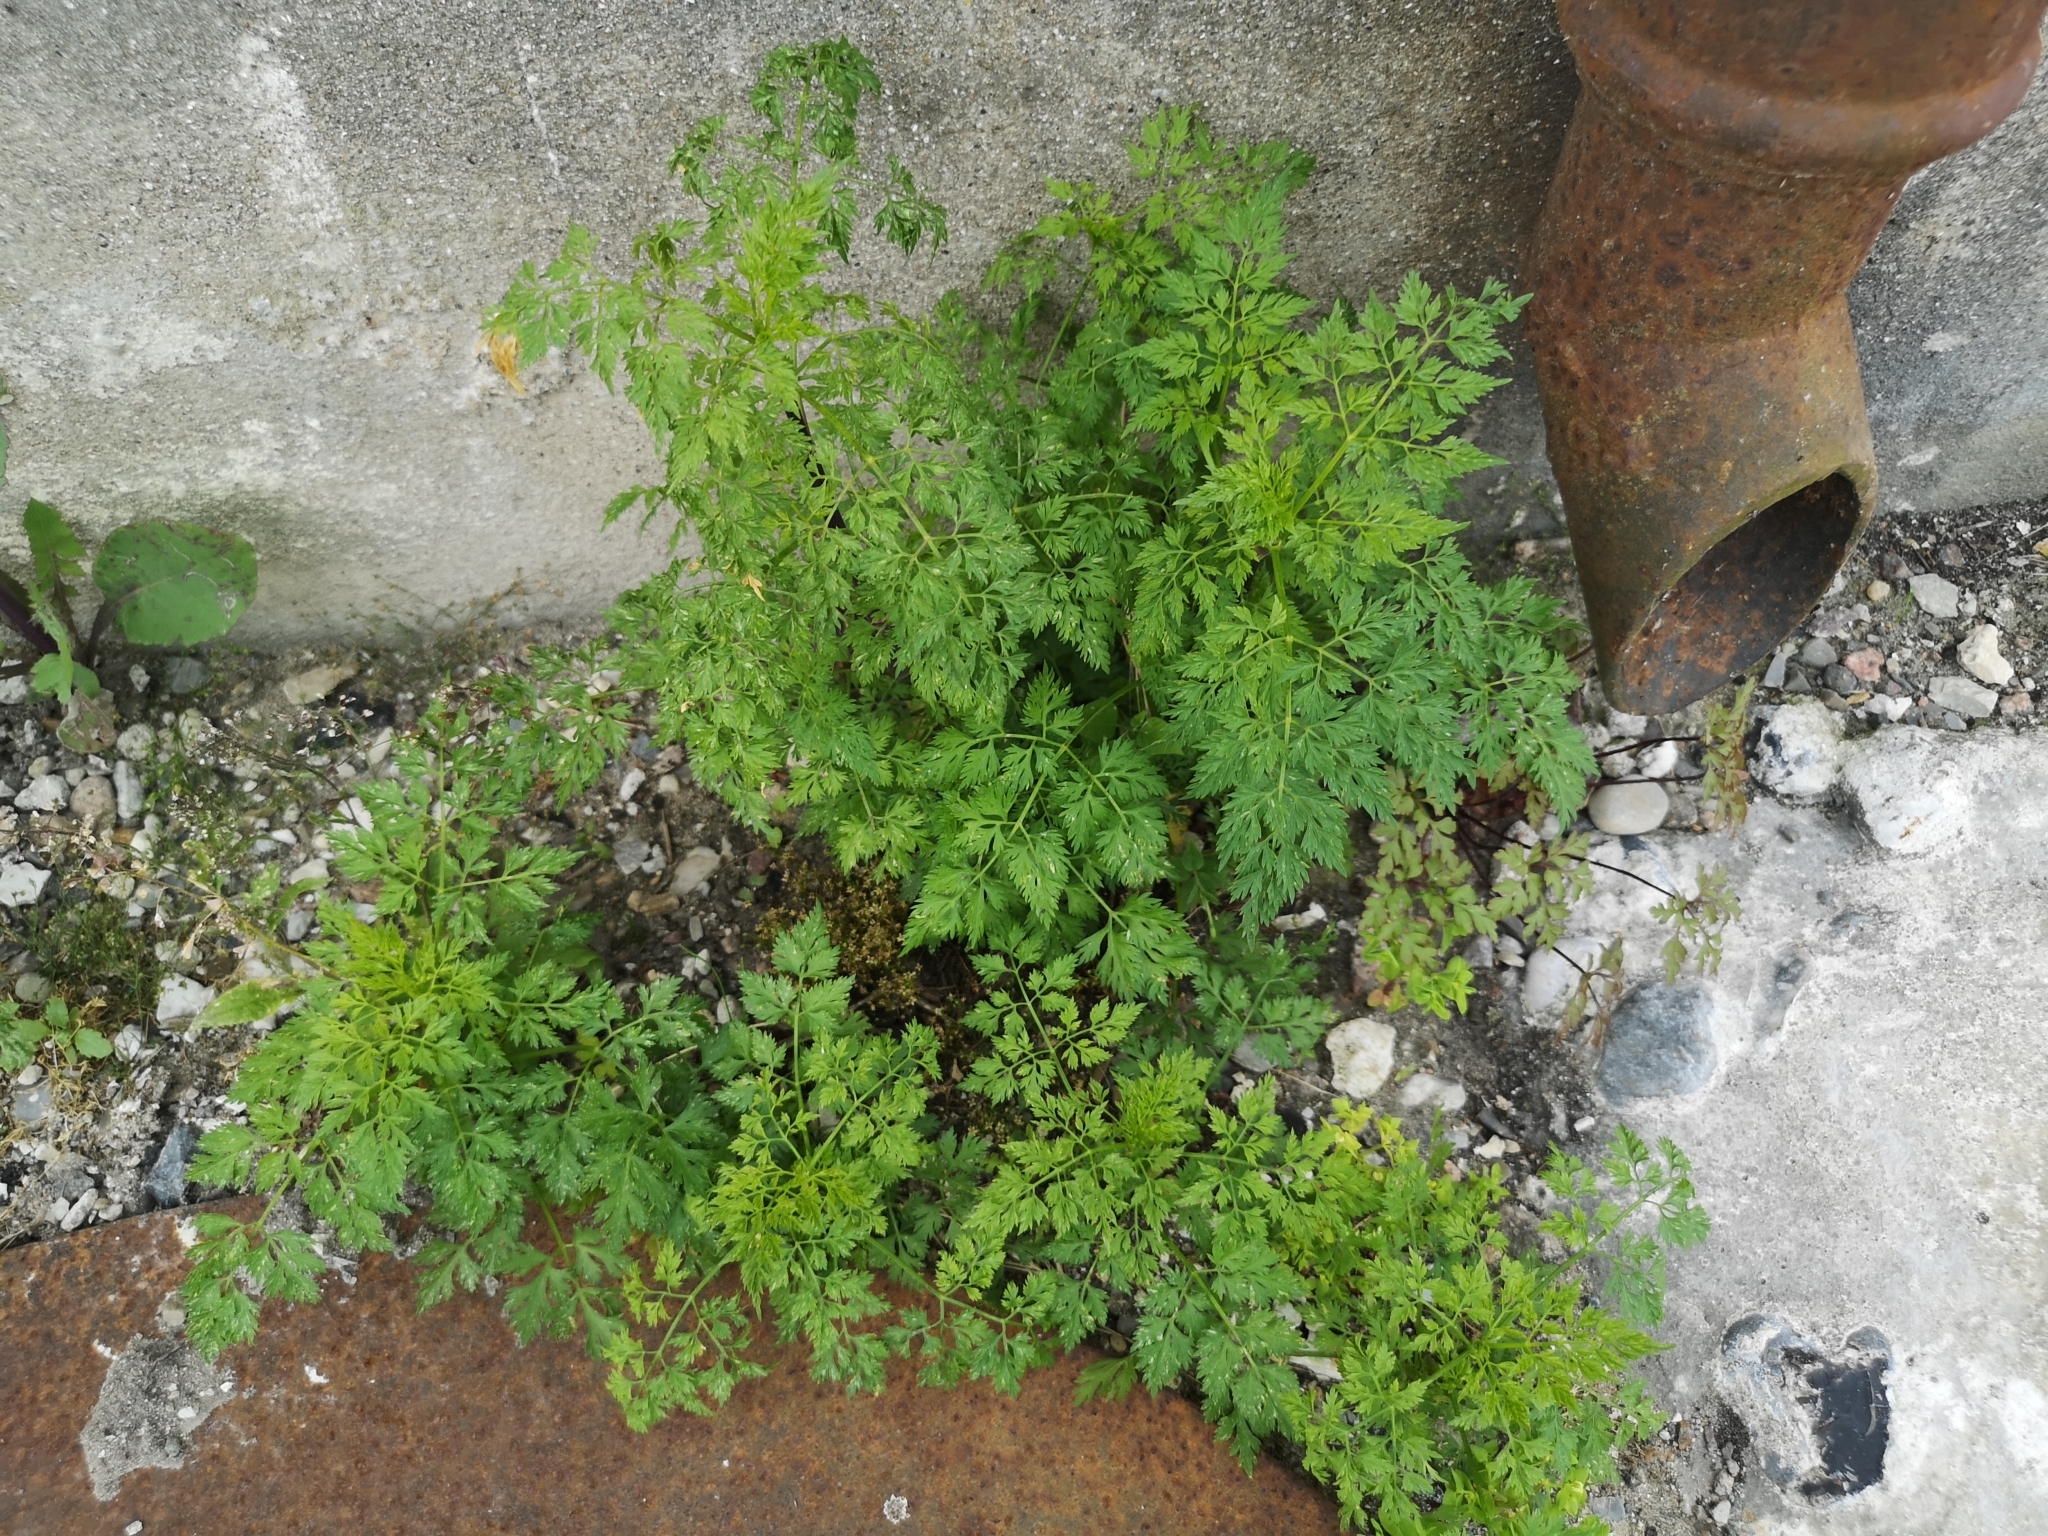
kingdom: Plantae
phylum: Tracheophyta
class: Magnoliopsida
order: Apiales
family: Apiaceae
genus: Aethusa
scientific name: Aethusa cynapium
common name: Fool's parsley
